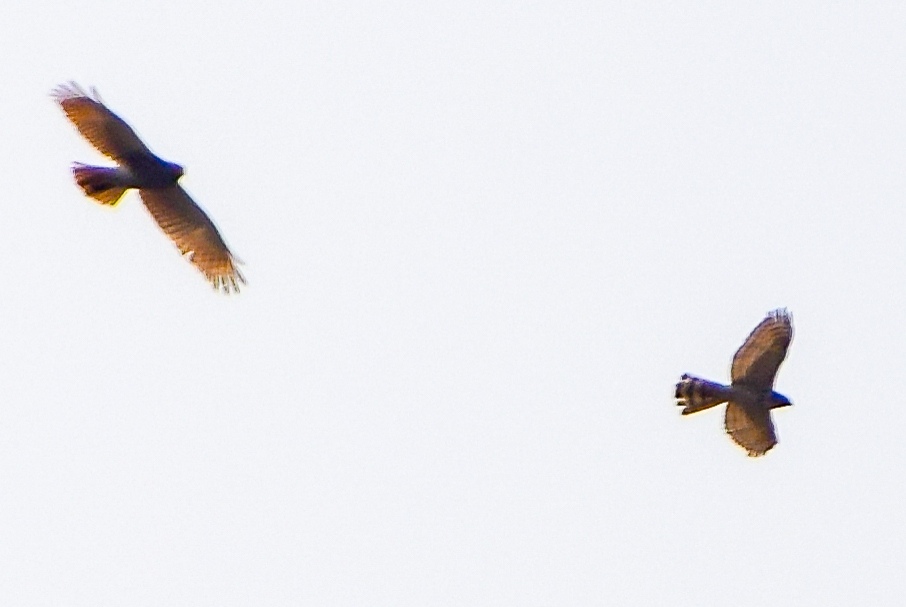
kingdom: Animalia
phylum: Chordata
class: Aves
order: Accipitriformes
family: Accipitridae
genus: Accipiter
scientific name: Accipiter badius
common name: Shikra
